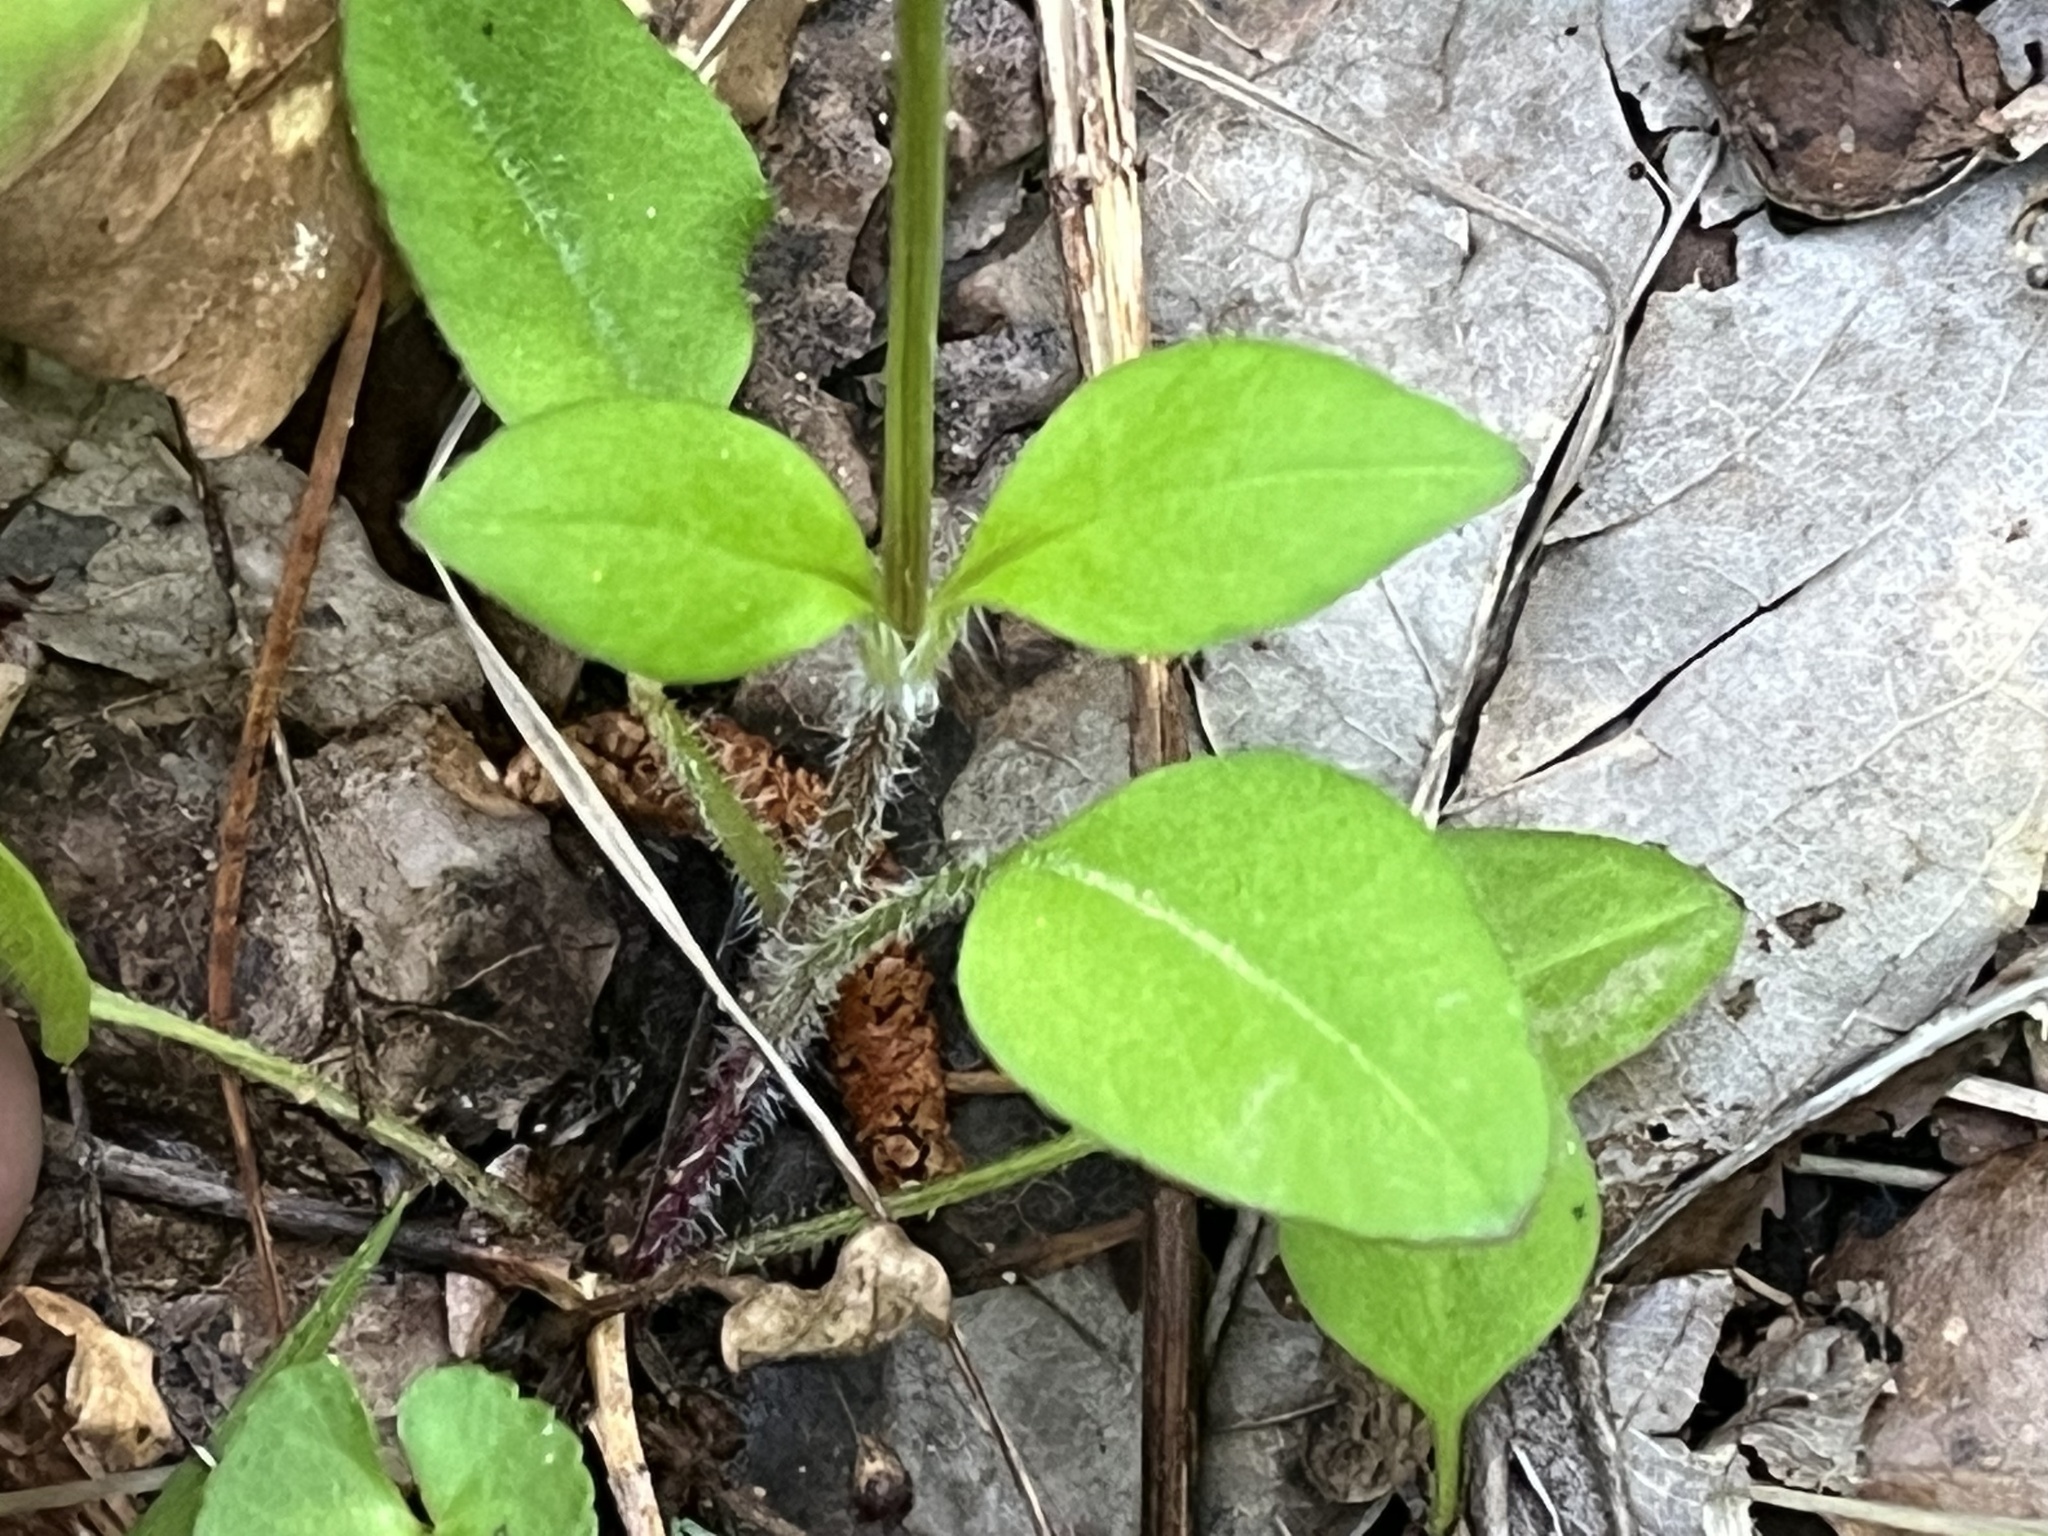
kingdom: Plantae
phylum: Tracheophyta
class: Magnoliopsida
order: Asterales
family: Asteraceae
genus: Coreopsis
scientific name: Coreopsis auriculata
